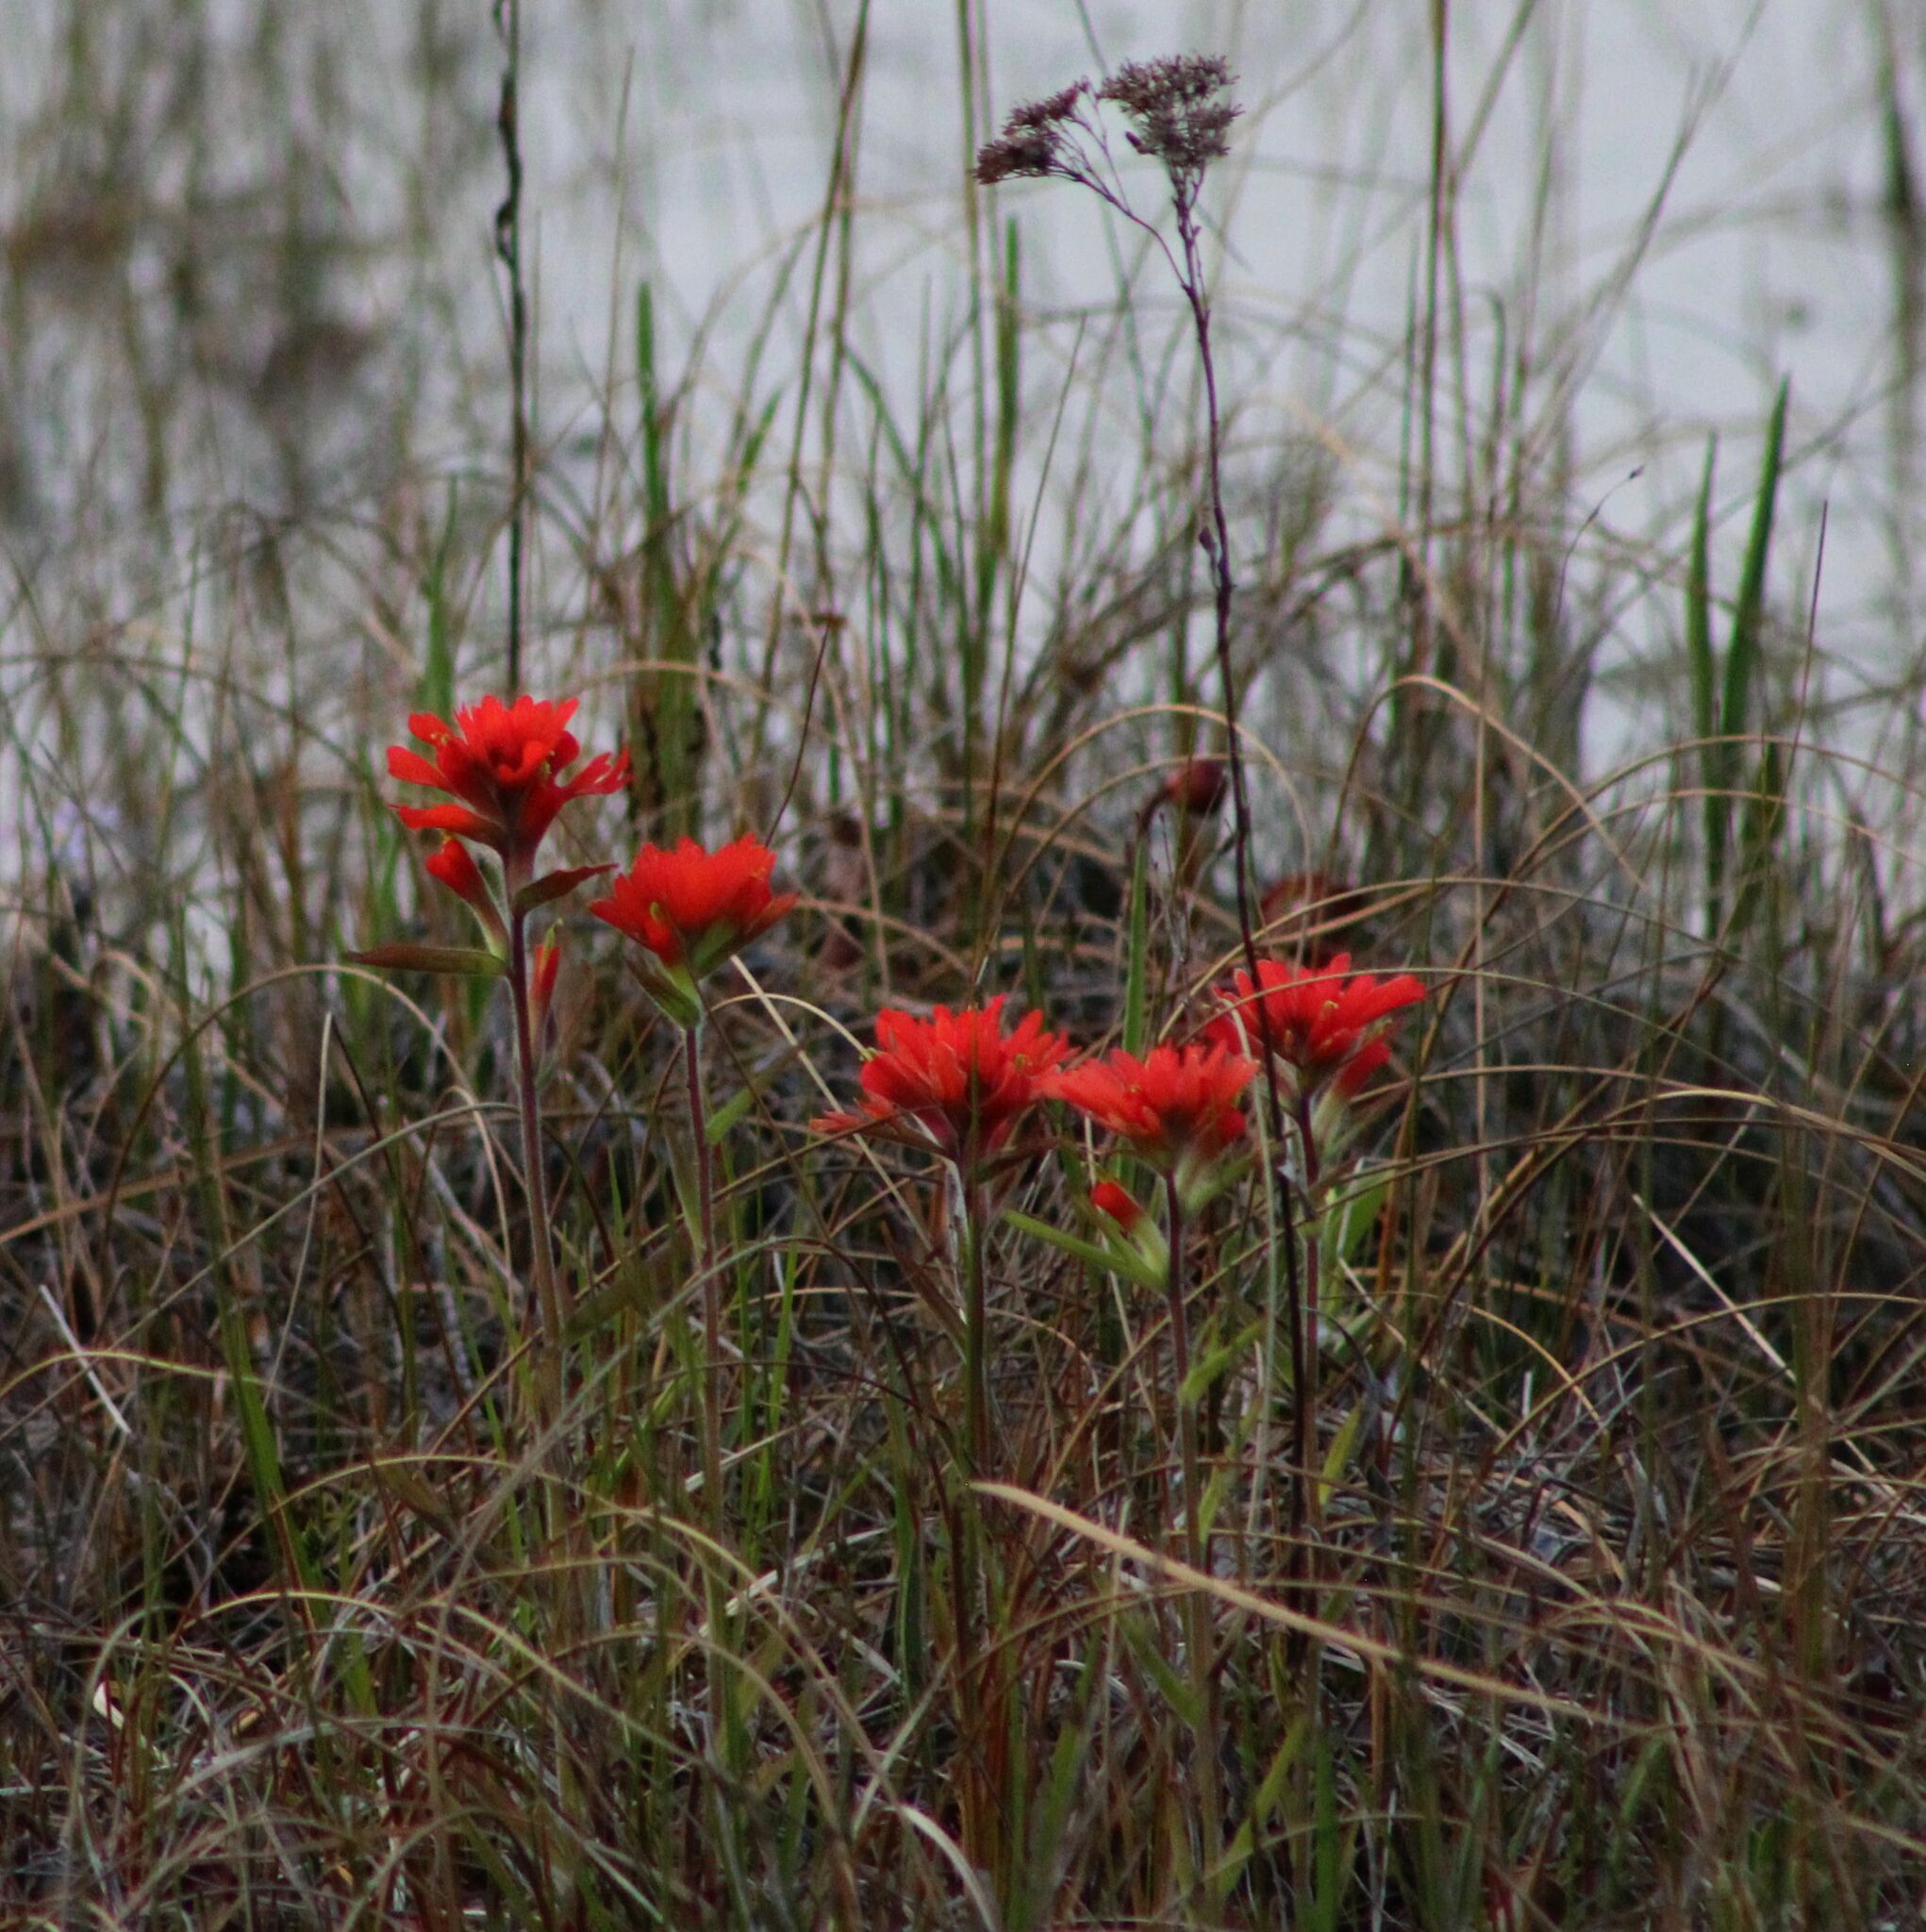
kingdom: Plantae
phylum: Tracheophyta
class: Magnoliopsida
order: Lamiales
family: Orobanchaceae
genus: Castilleja
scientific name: Castilleja coccinea
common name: Scarlet paintbrush
